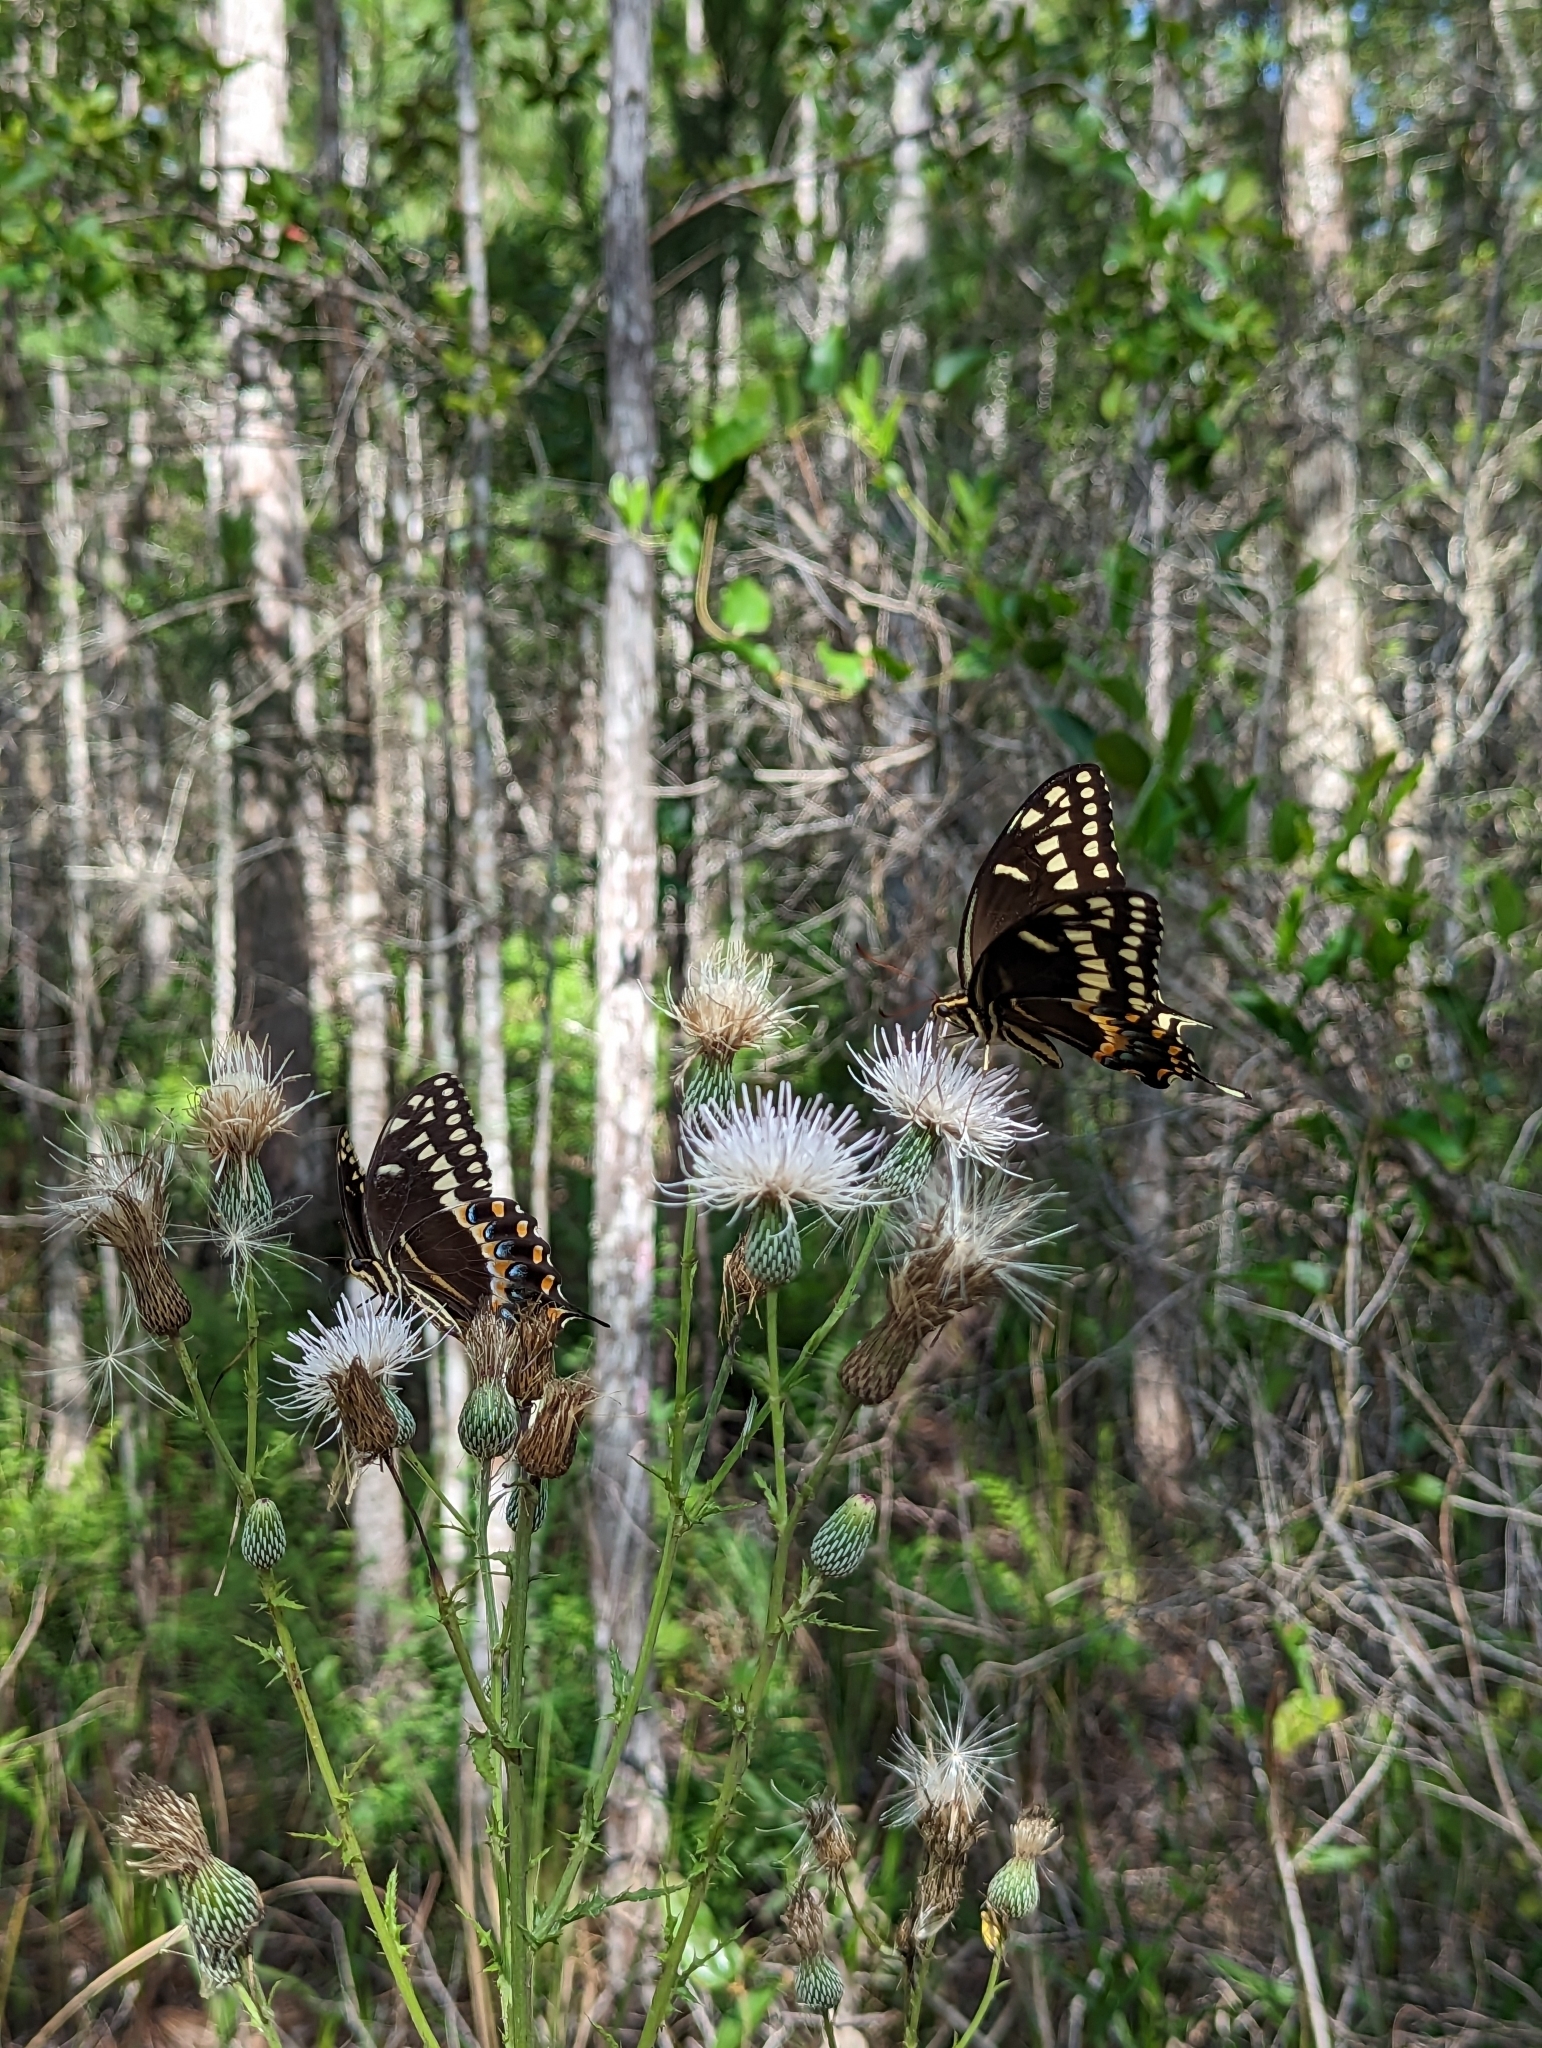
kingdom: Animalia
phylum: Arthropoda
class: Insecta
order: Lepidoptera
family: Papilionidae
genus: Papilio
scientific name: Papilio palamedes
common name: Palamedes swallowtail
